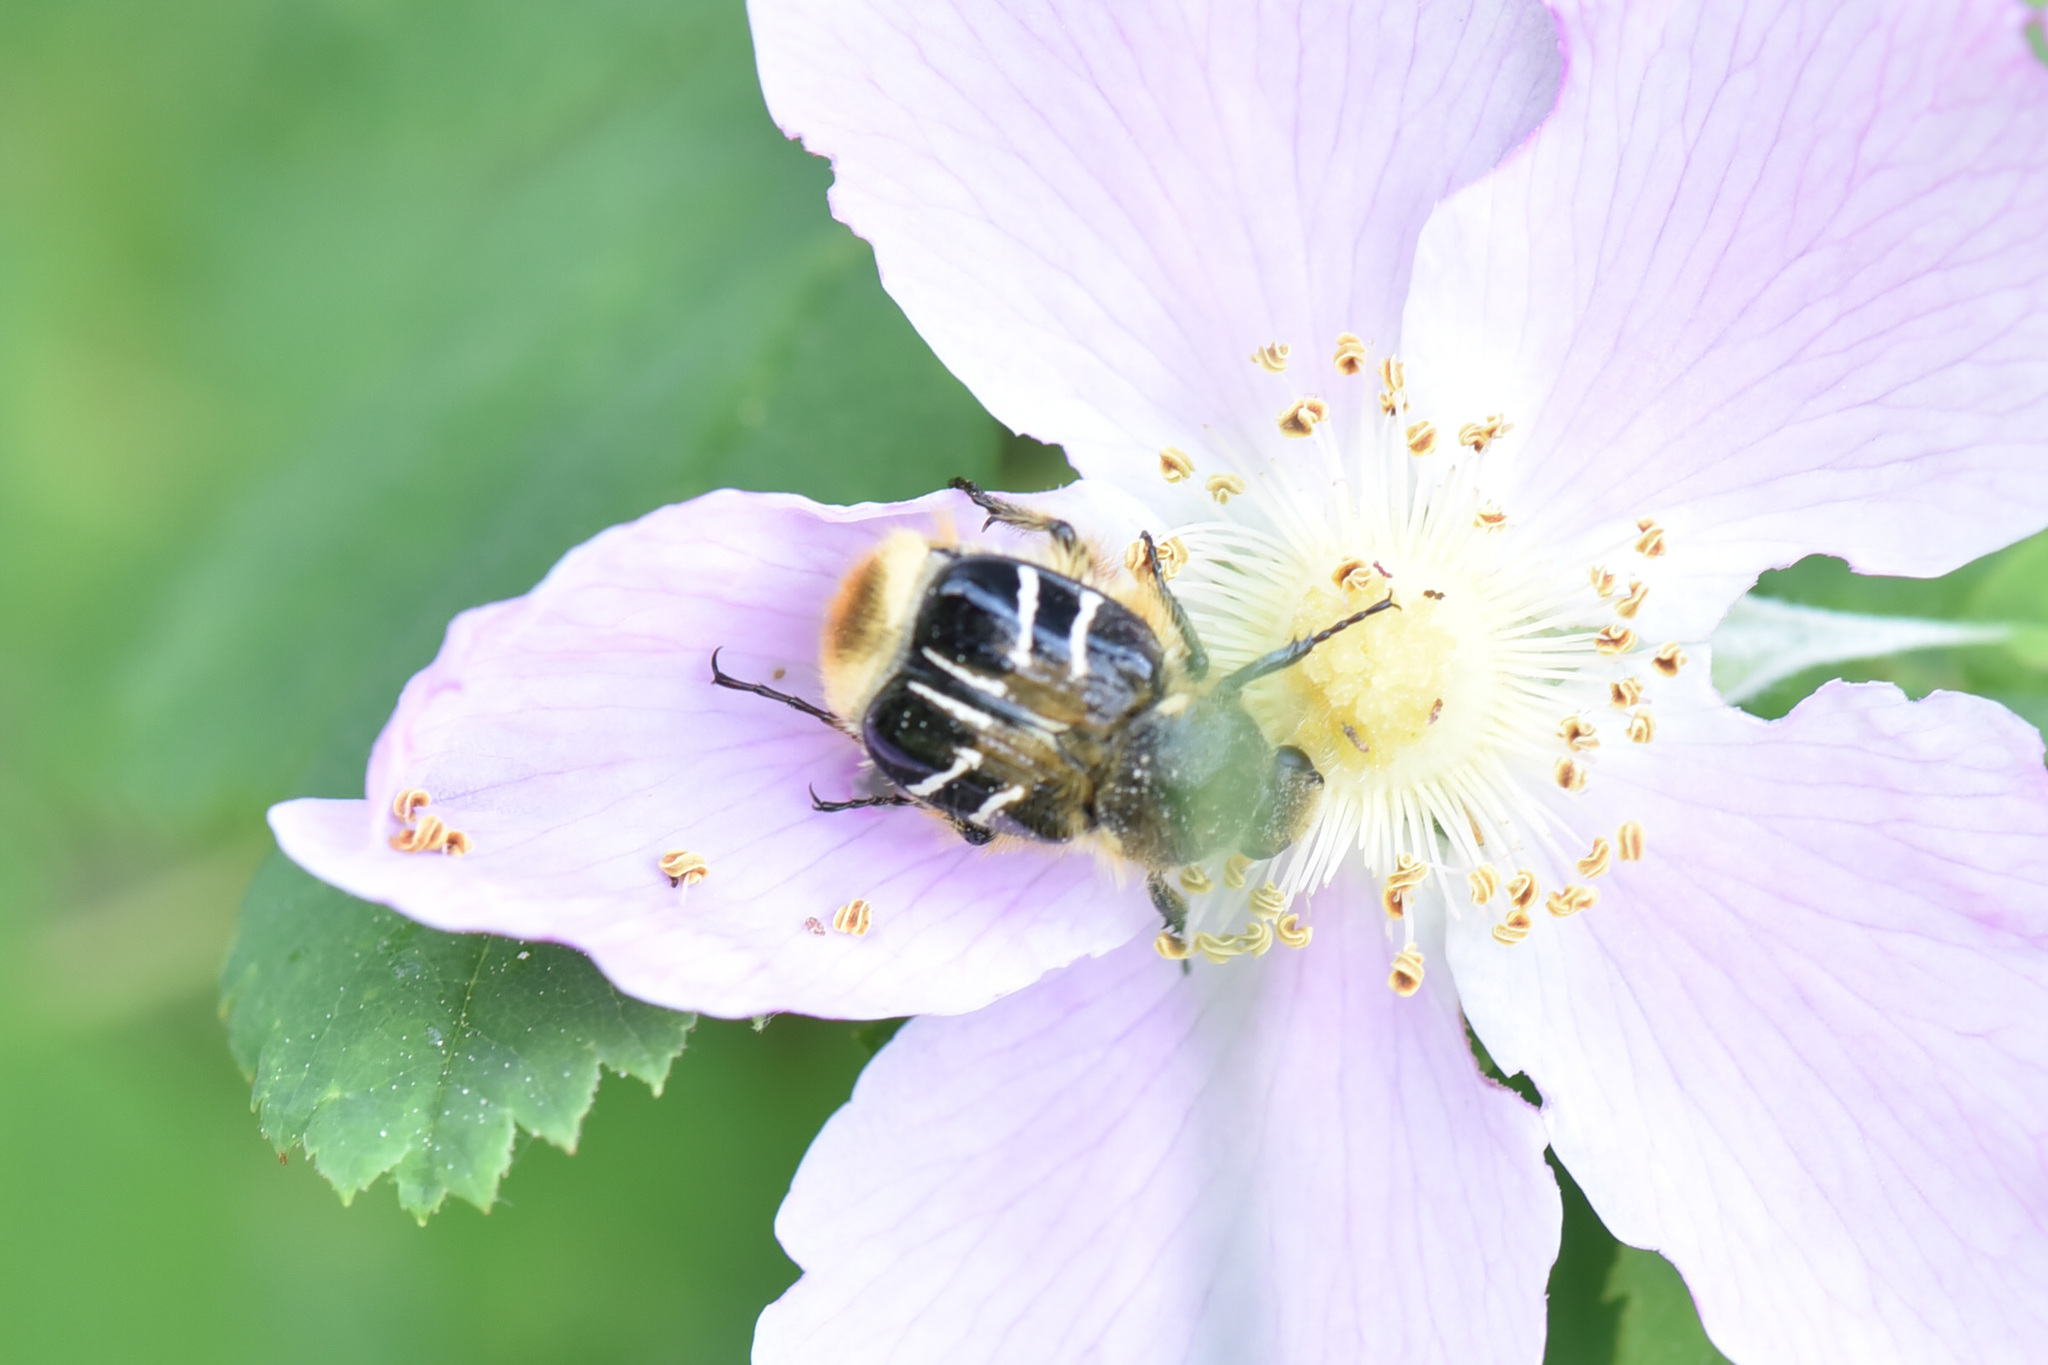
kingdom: Animalia
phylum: Arthropoda
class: Insecta
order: Coleoptera
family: Scarabaeidae
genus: Trichiotinus
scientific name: Trichiotinus assimilis
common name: Bee-mimic beetle
